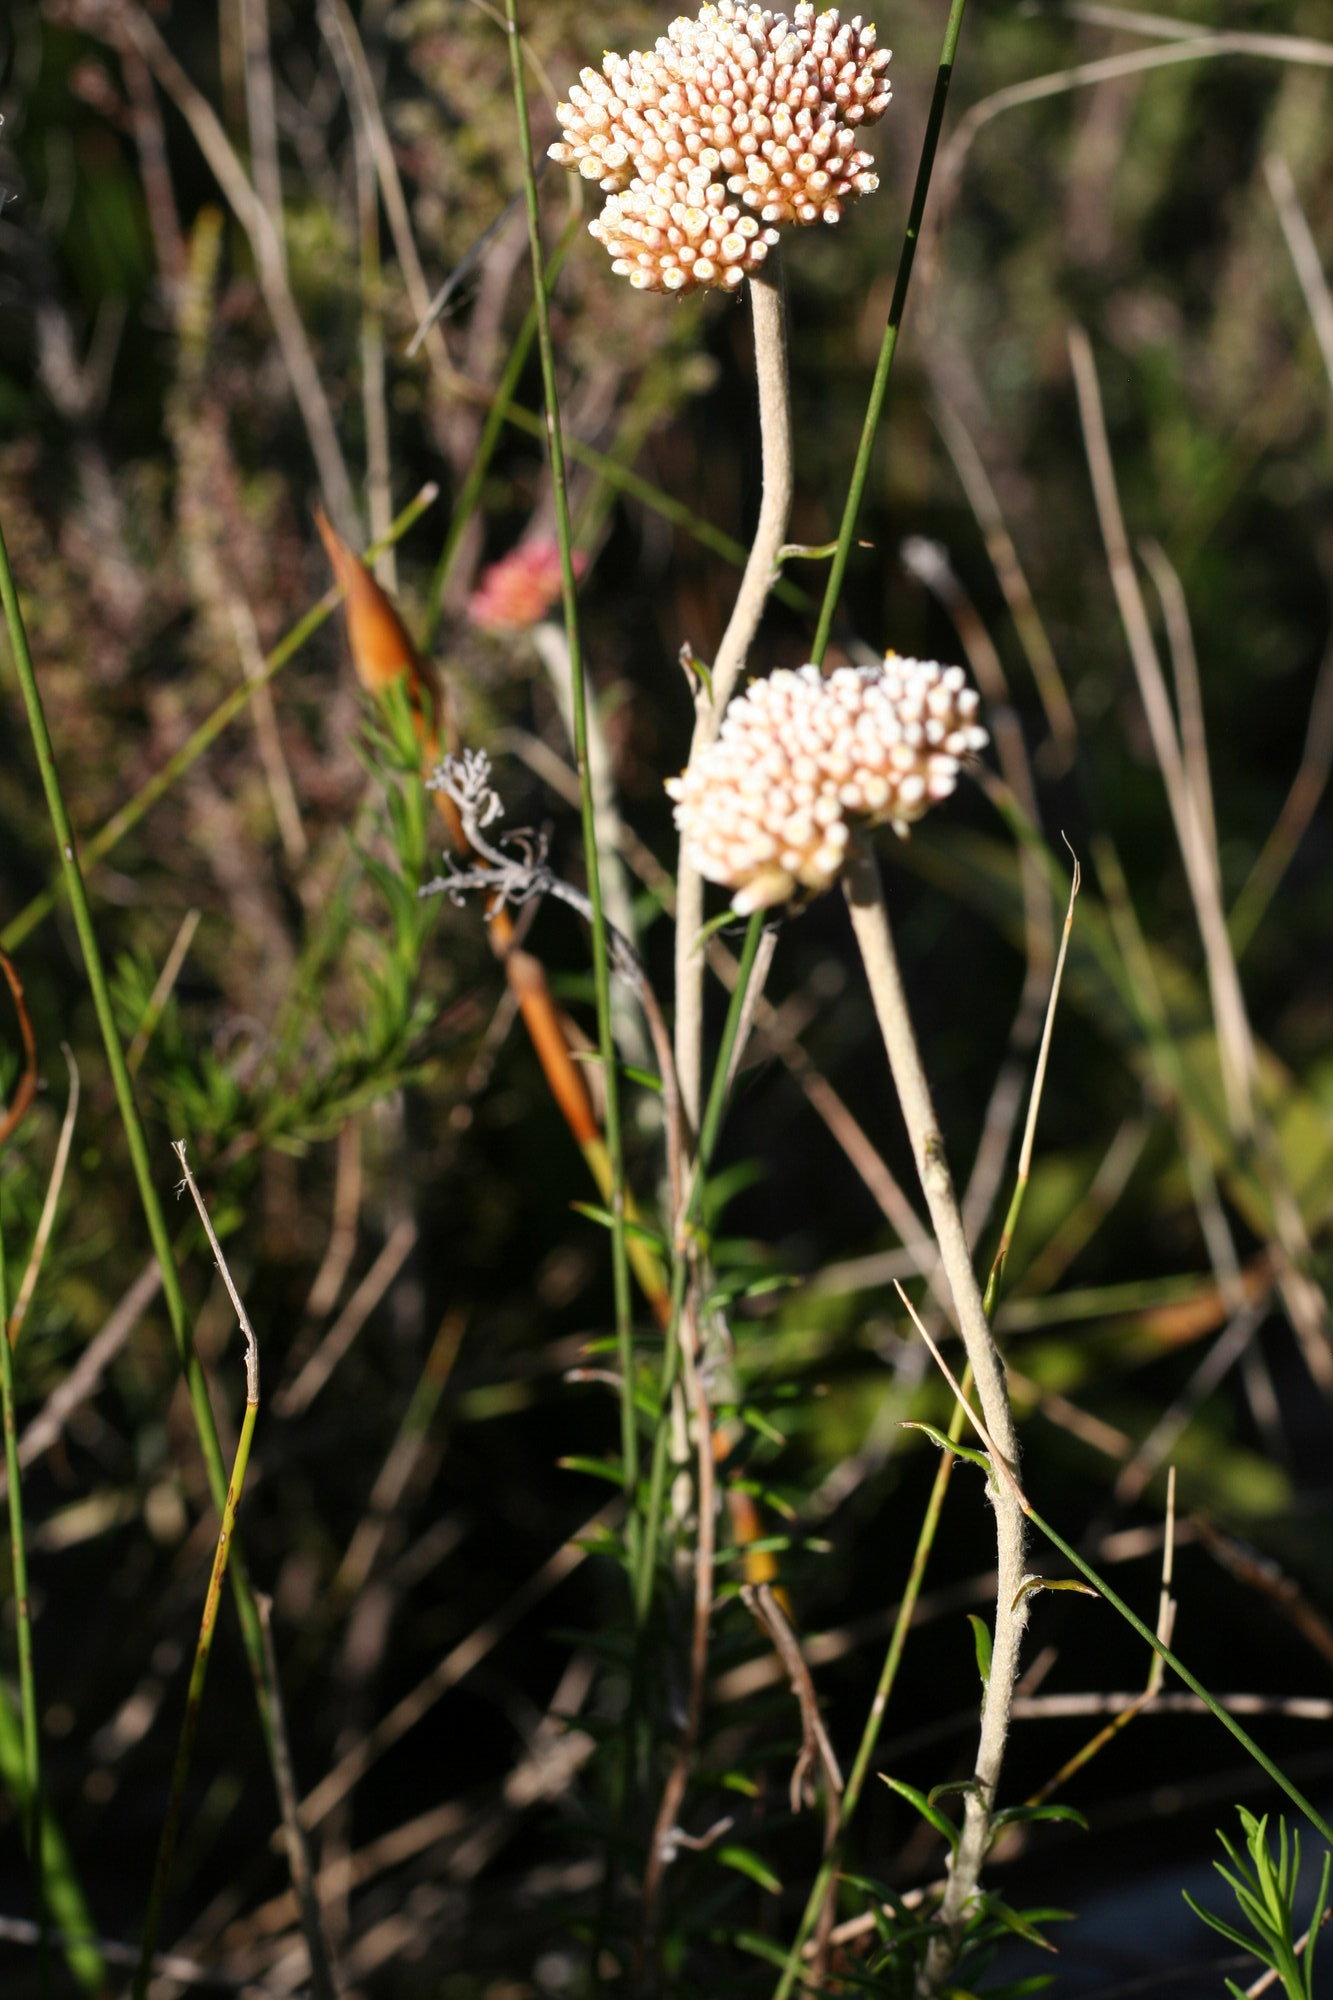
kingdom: Plantae
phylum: Tracheophyta
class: Magnoliopsida
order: Asterales
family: Asteraceae
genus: Anaxeton
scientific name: Anaxeton arborescens
